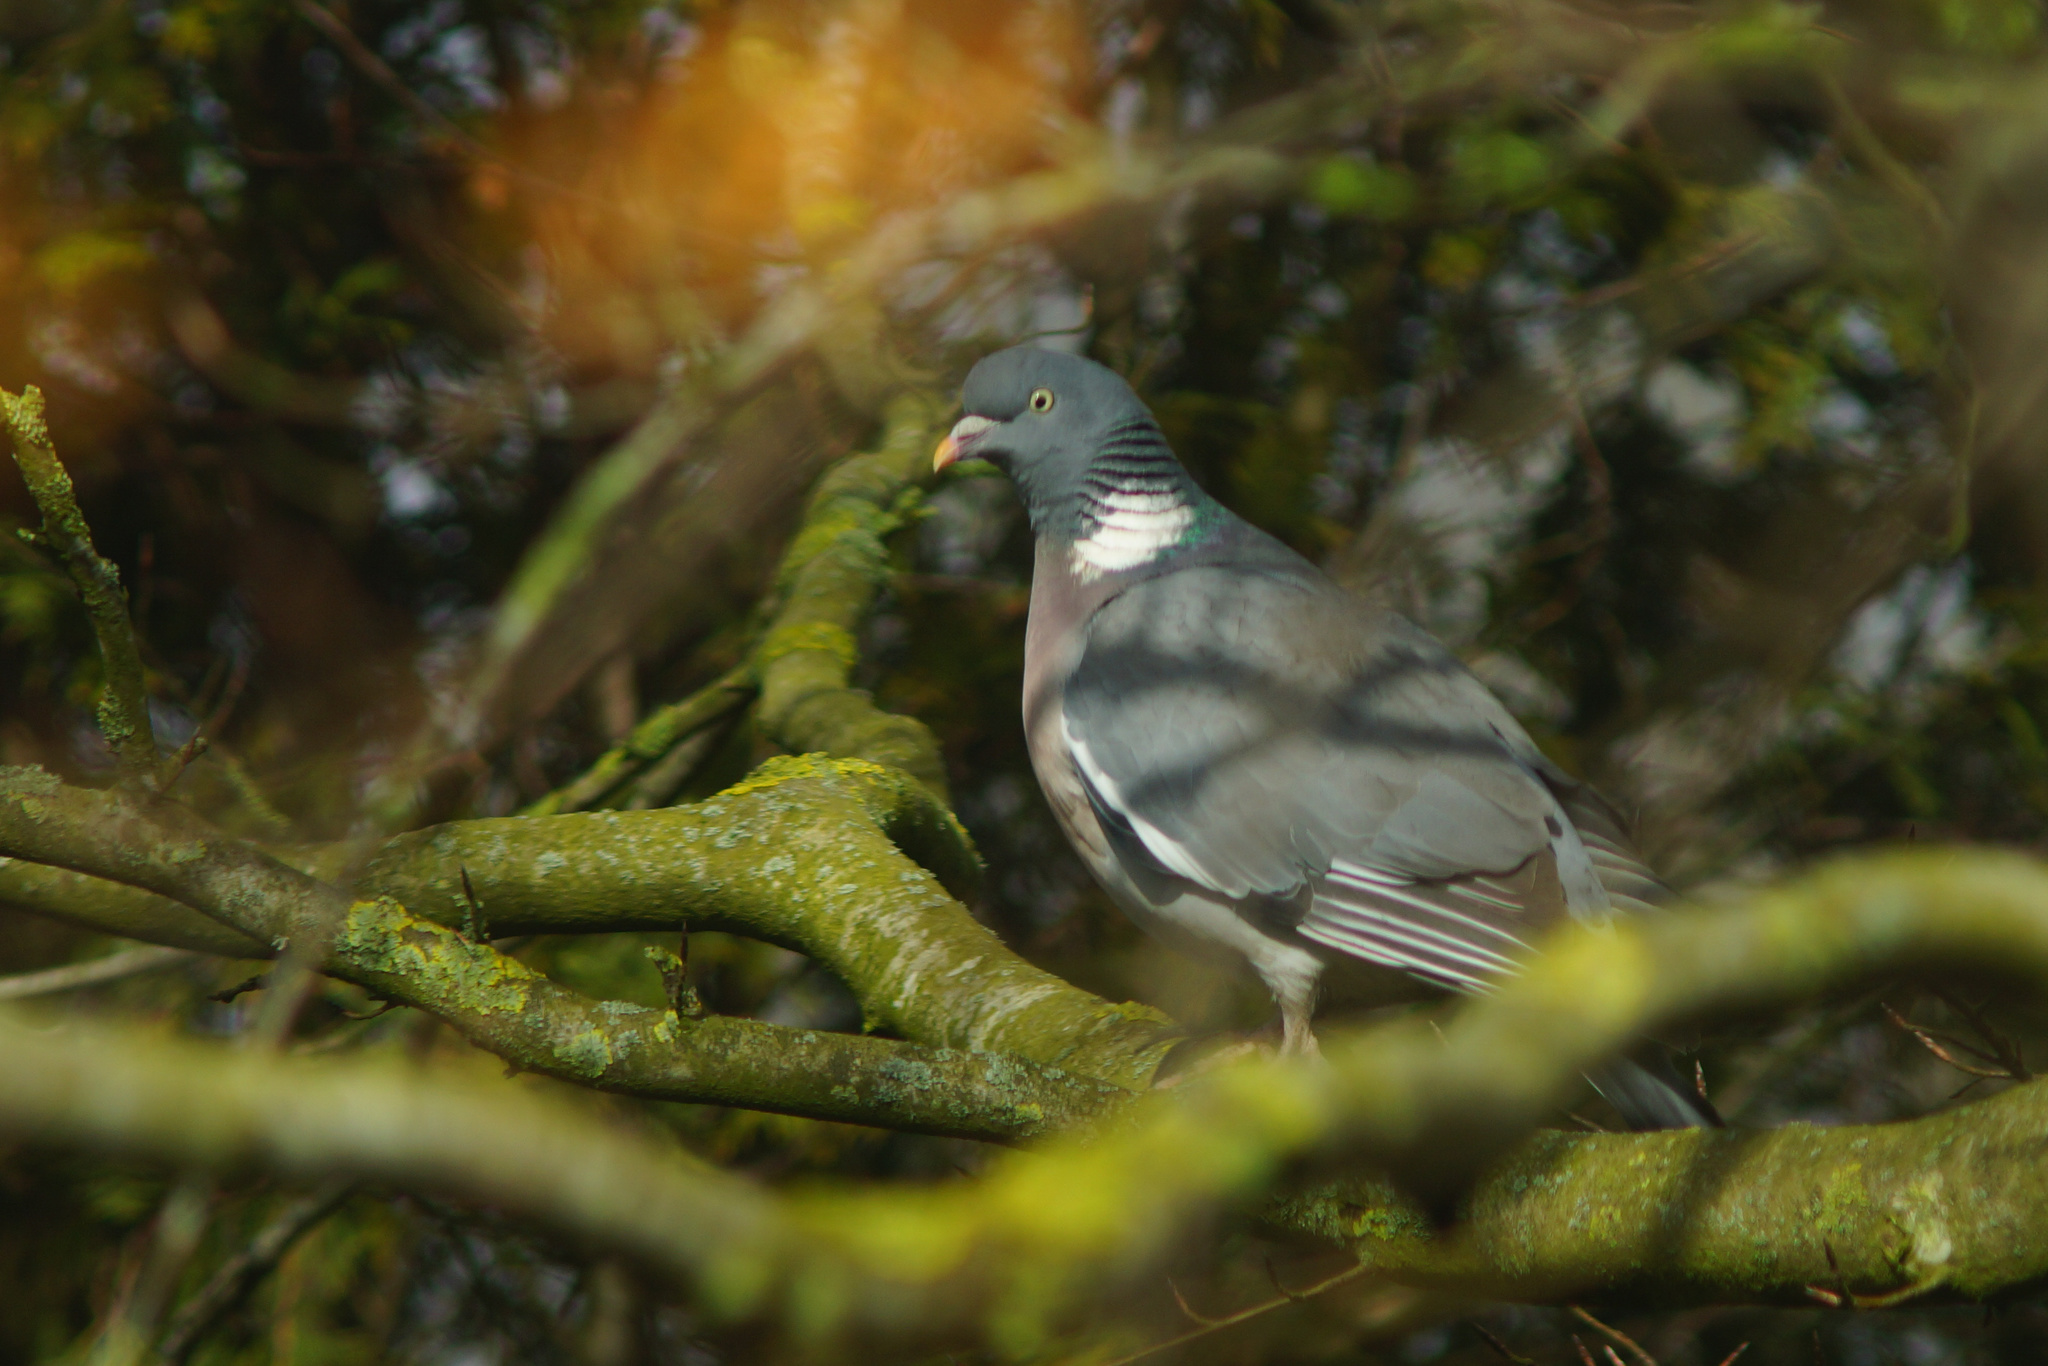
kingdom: Animalia
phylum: Chordata
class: Aves
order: Columbiformes
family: Columbidae
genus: Columba
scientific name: Columba palumbus
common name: Common wood pigeon
